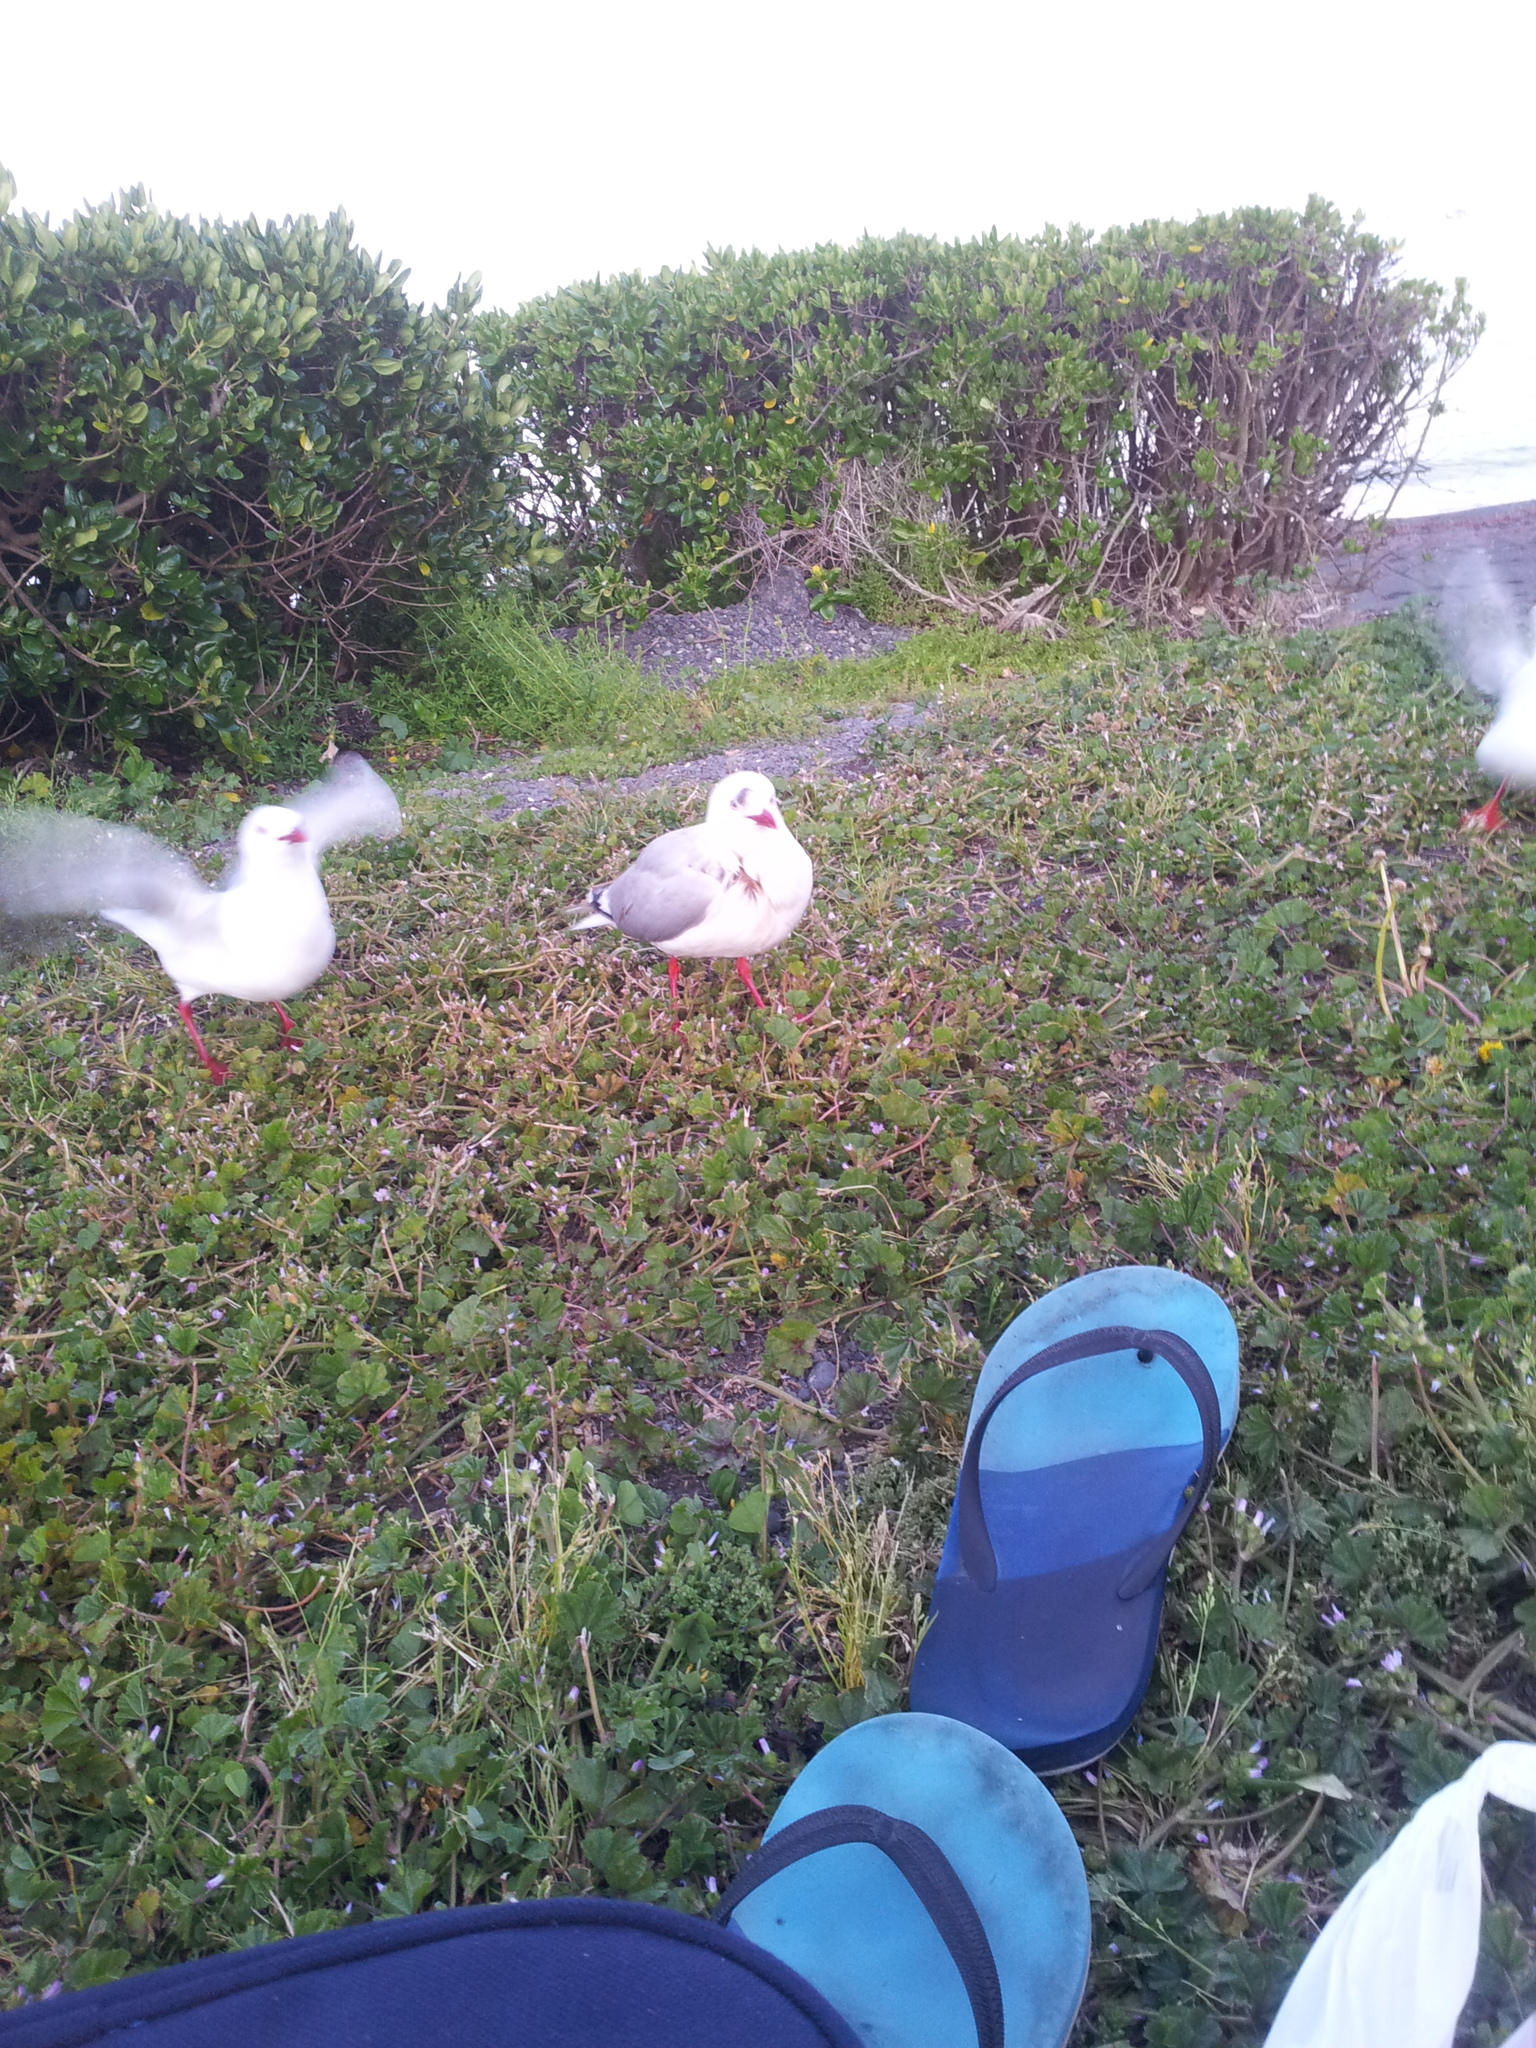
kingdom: Animalia
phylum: Chordata
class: Aves
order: Charadriiformes
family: Laridae
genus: Chroicocephalus
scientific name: Chroicocephalus novaehollandiae
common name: Silver gull
